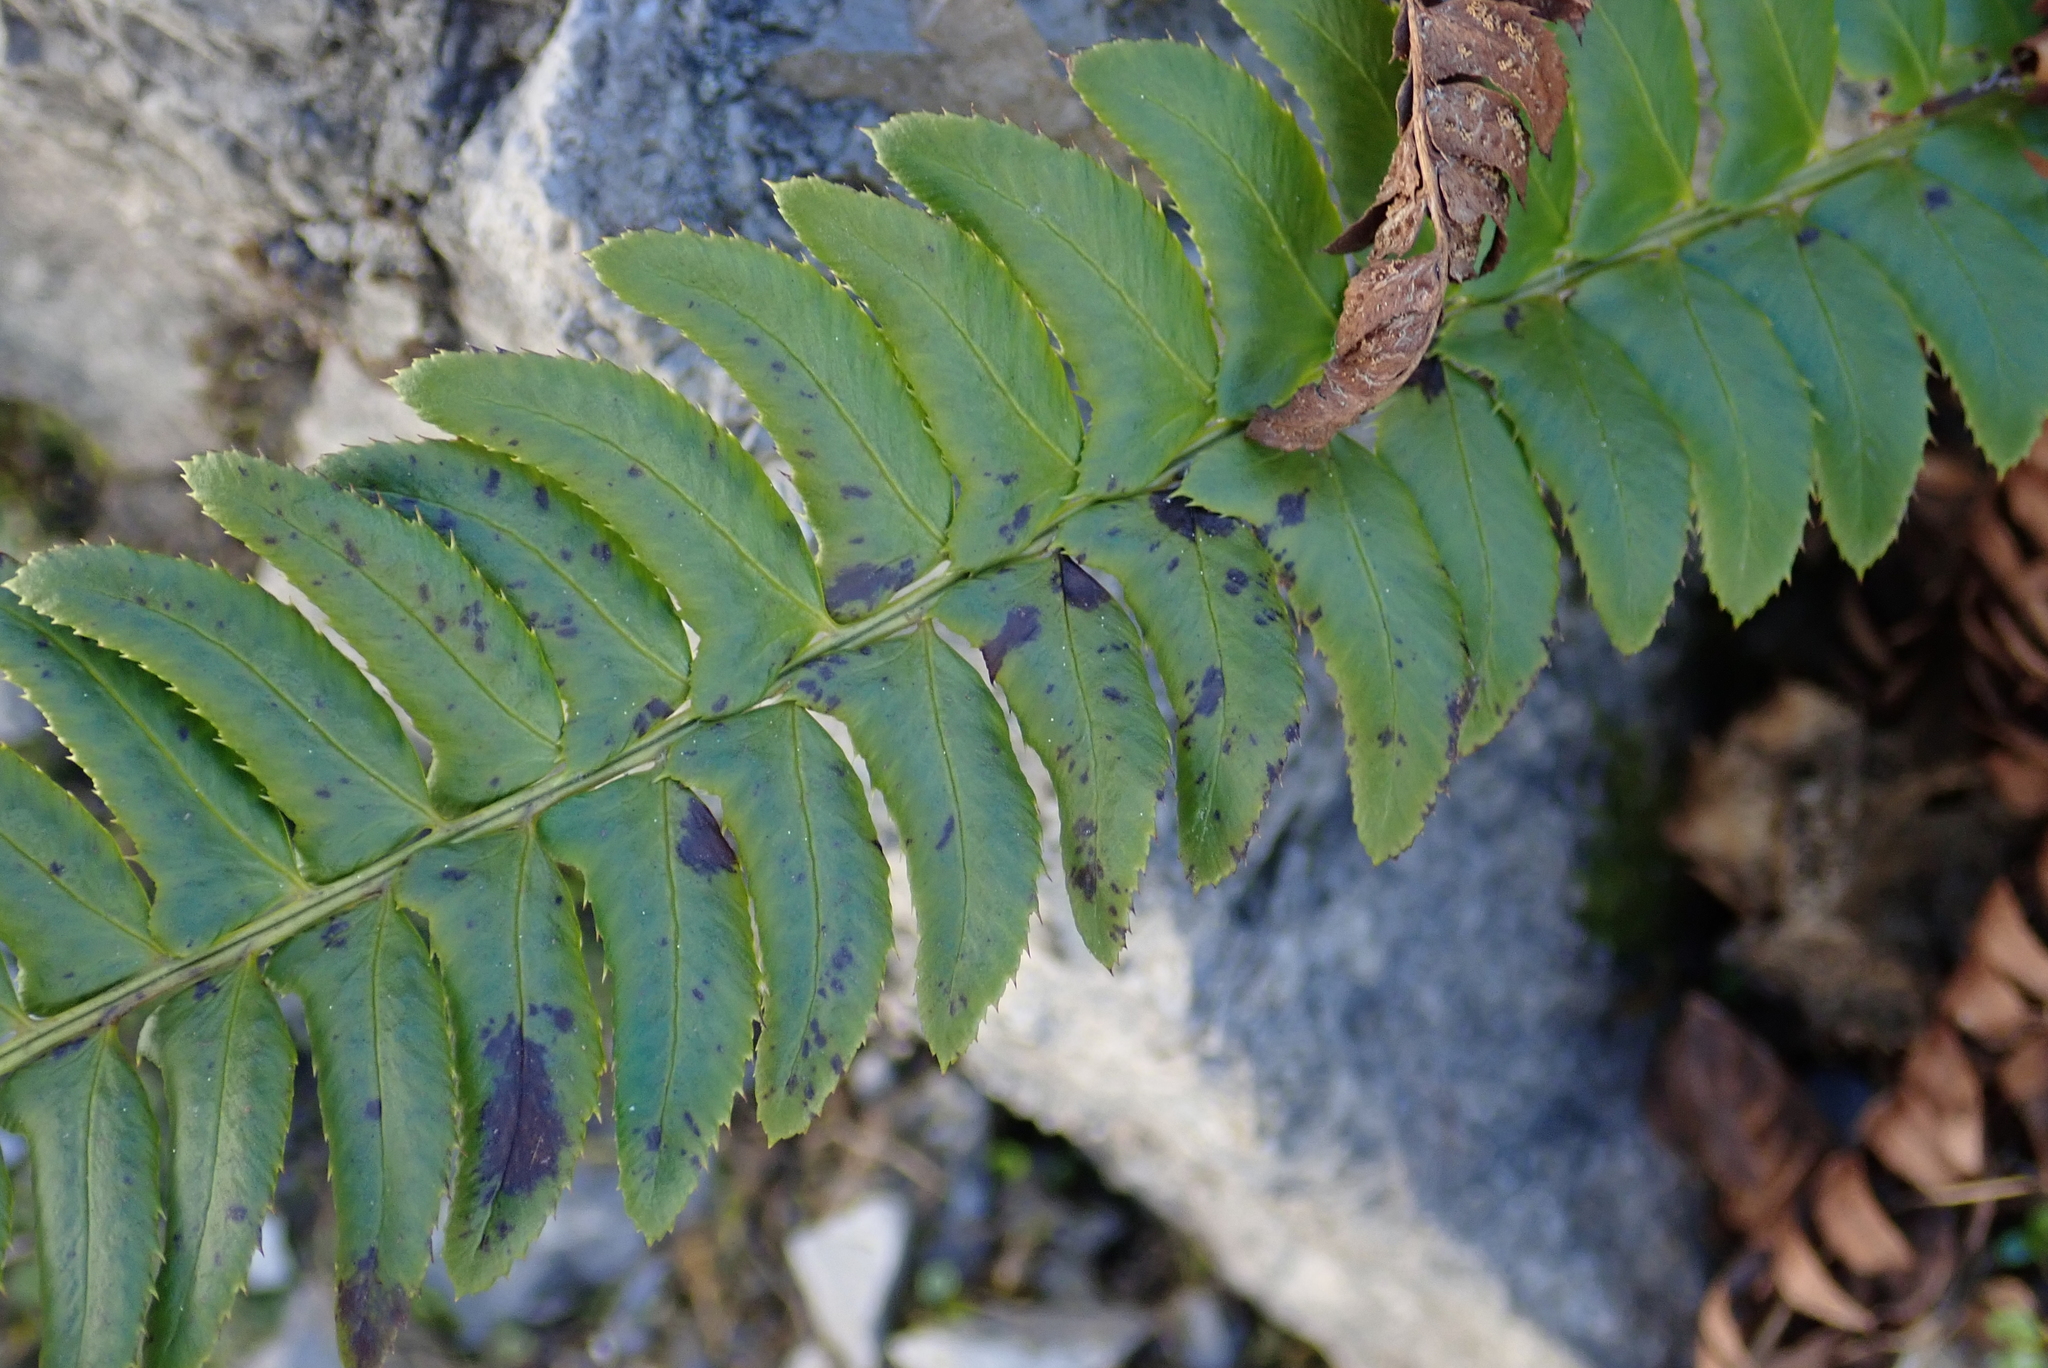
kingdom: Plantae
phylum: Tracheophyta
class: Polypodiopsida
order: Polypodiales
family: Dryopteridaceae
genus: Polystichum
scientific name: Polystichum lonchitis
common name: Holly fern
